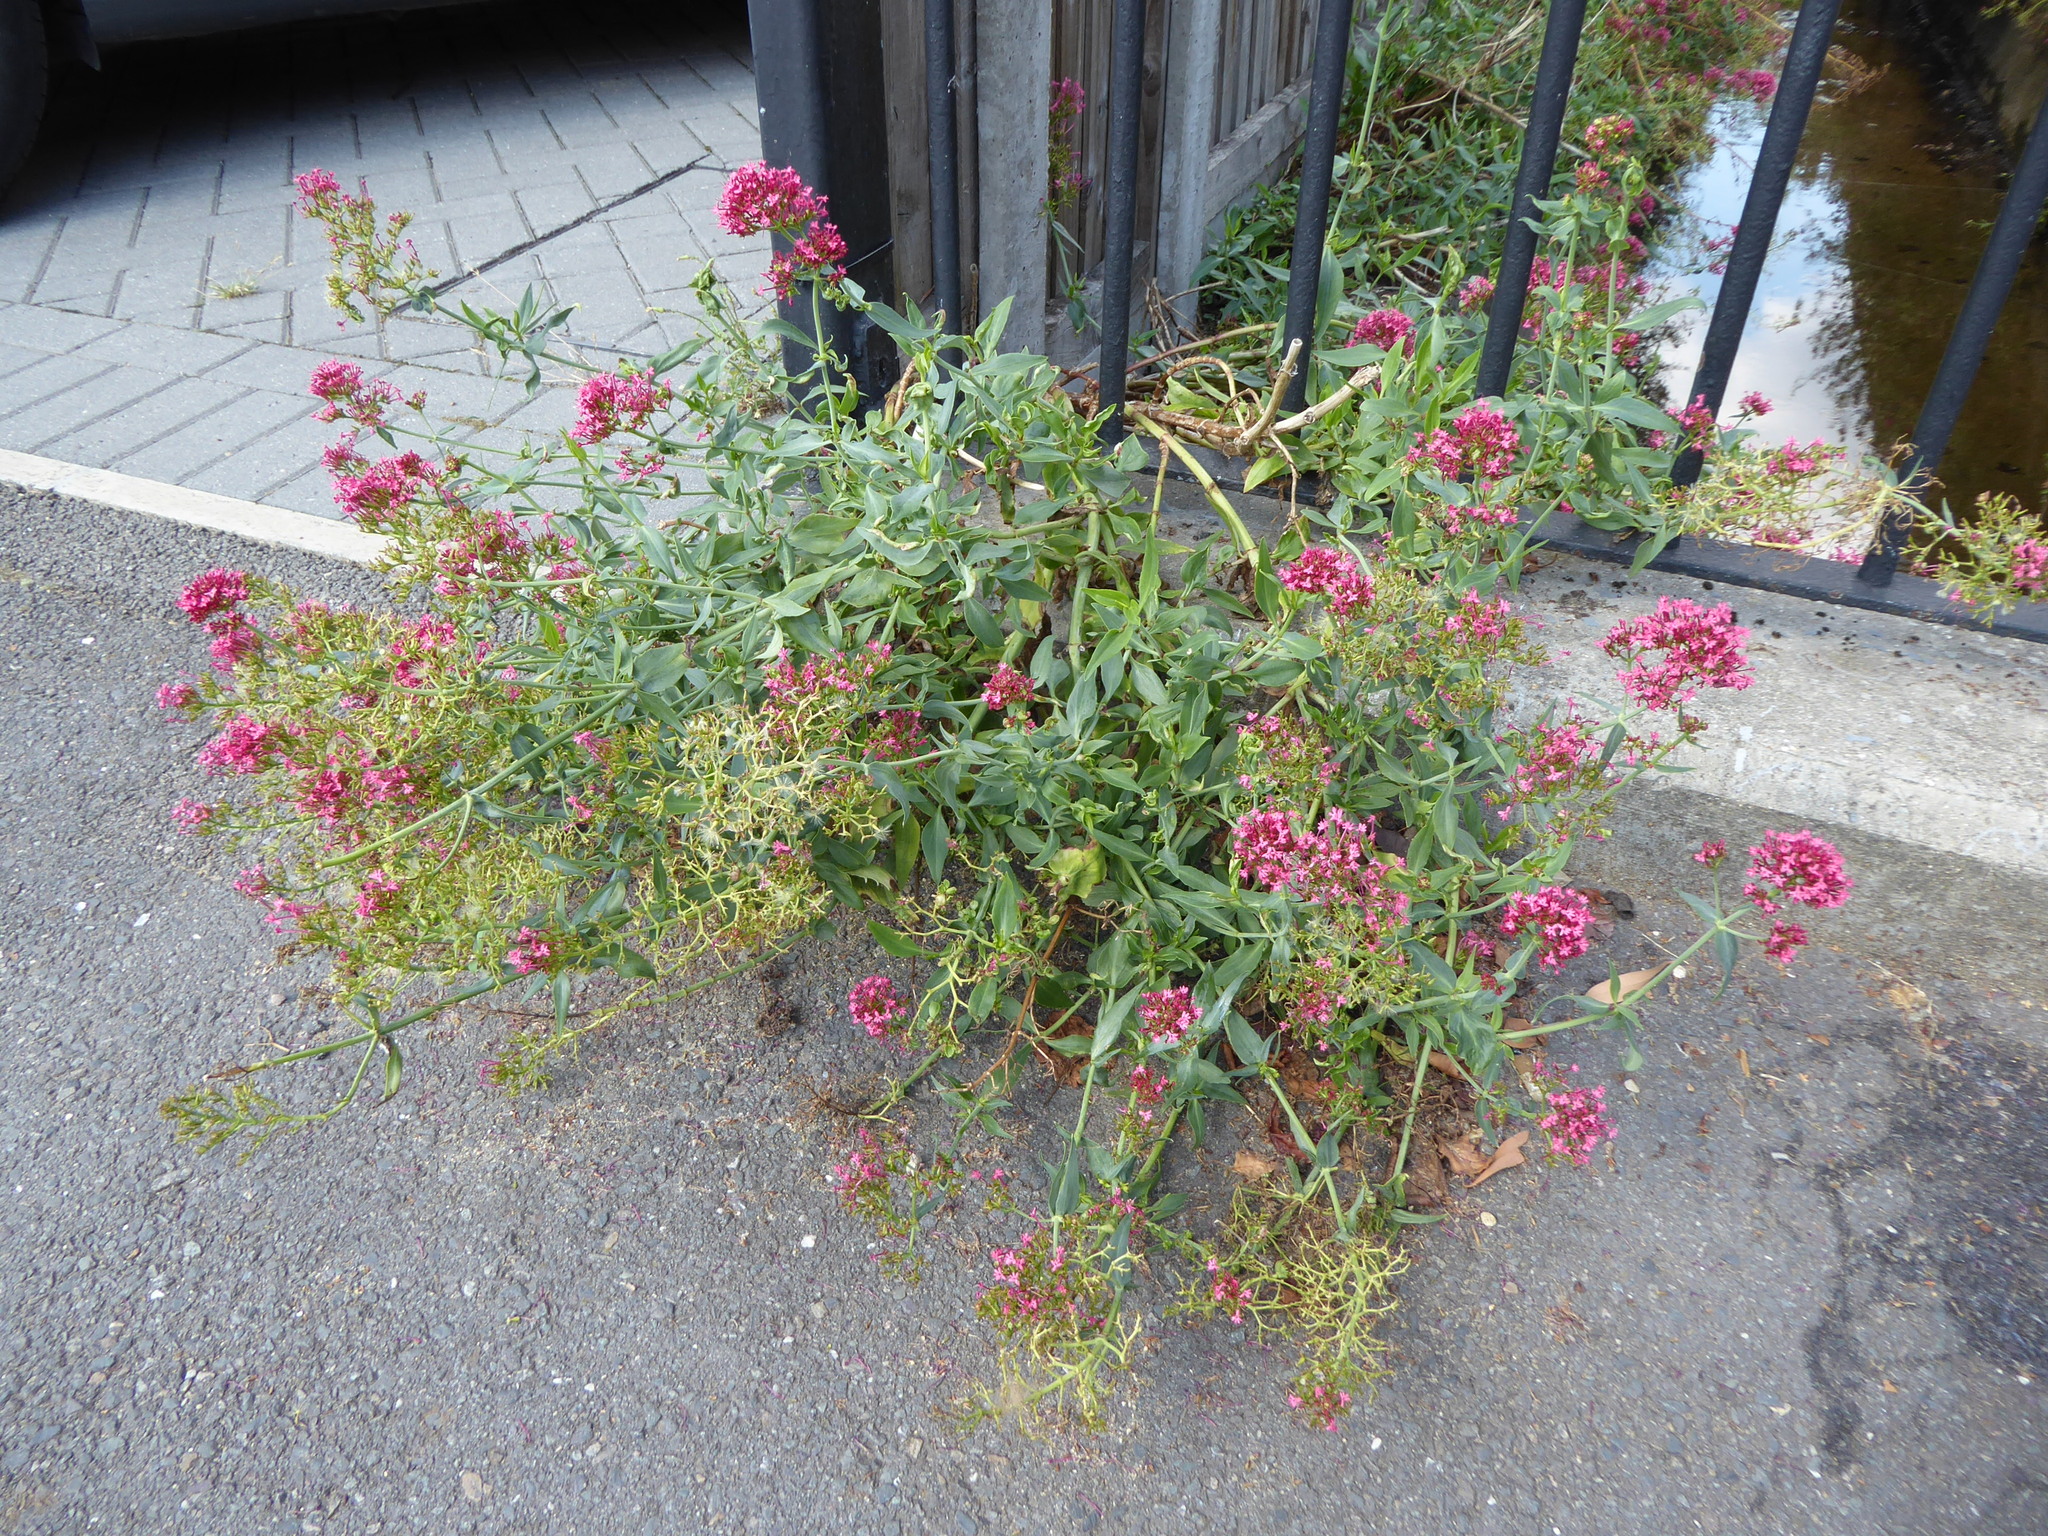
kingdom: Plantae
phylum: Tracheophyta
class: Magnoliopsida
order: Dipsacales
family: Caprifoliaceae
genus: Centranthus
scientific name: Centranthus ruber
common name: Red valerian
